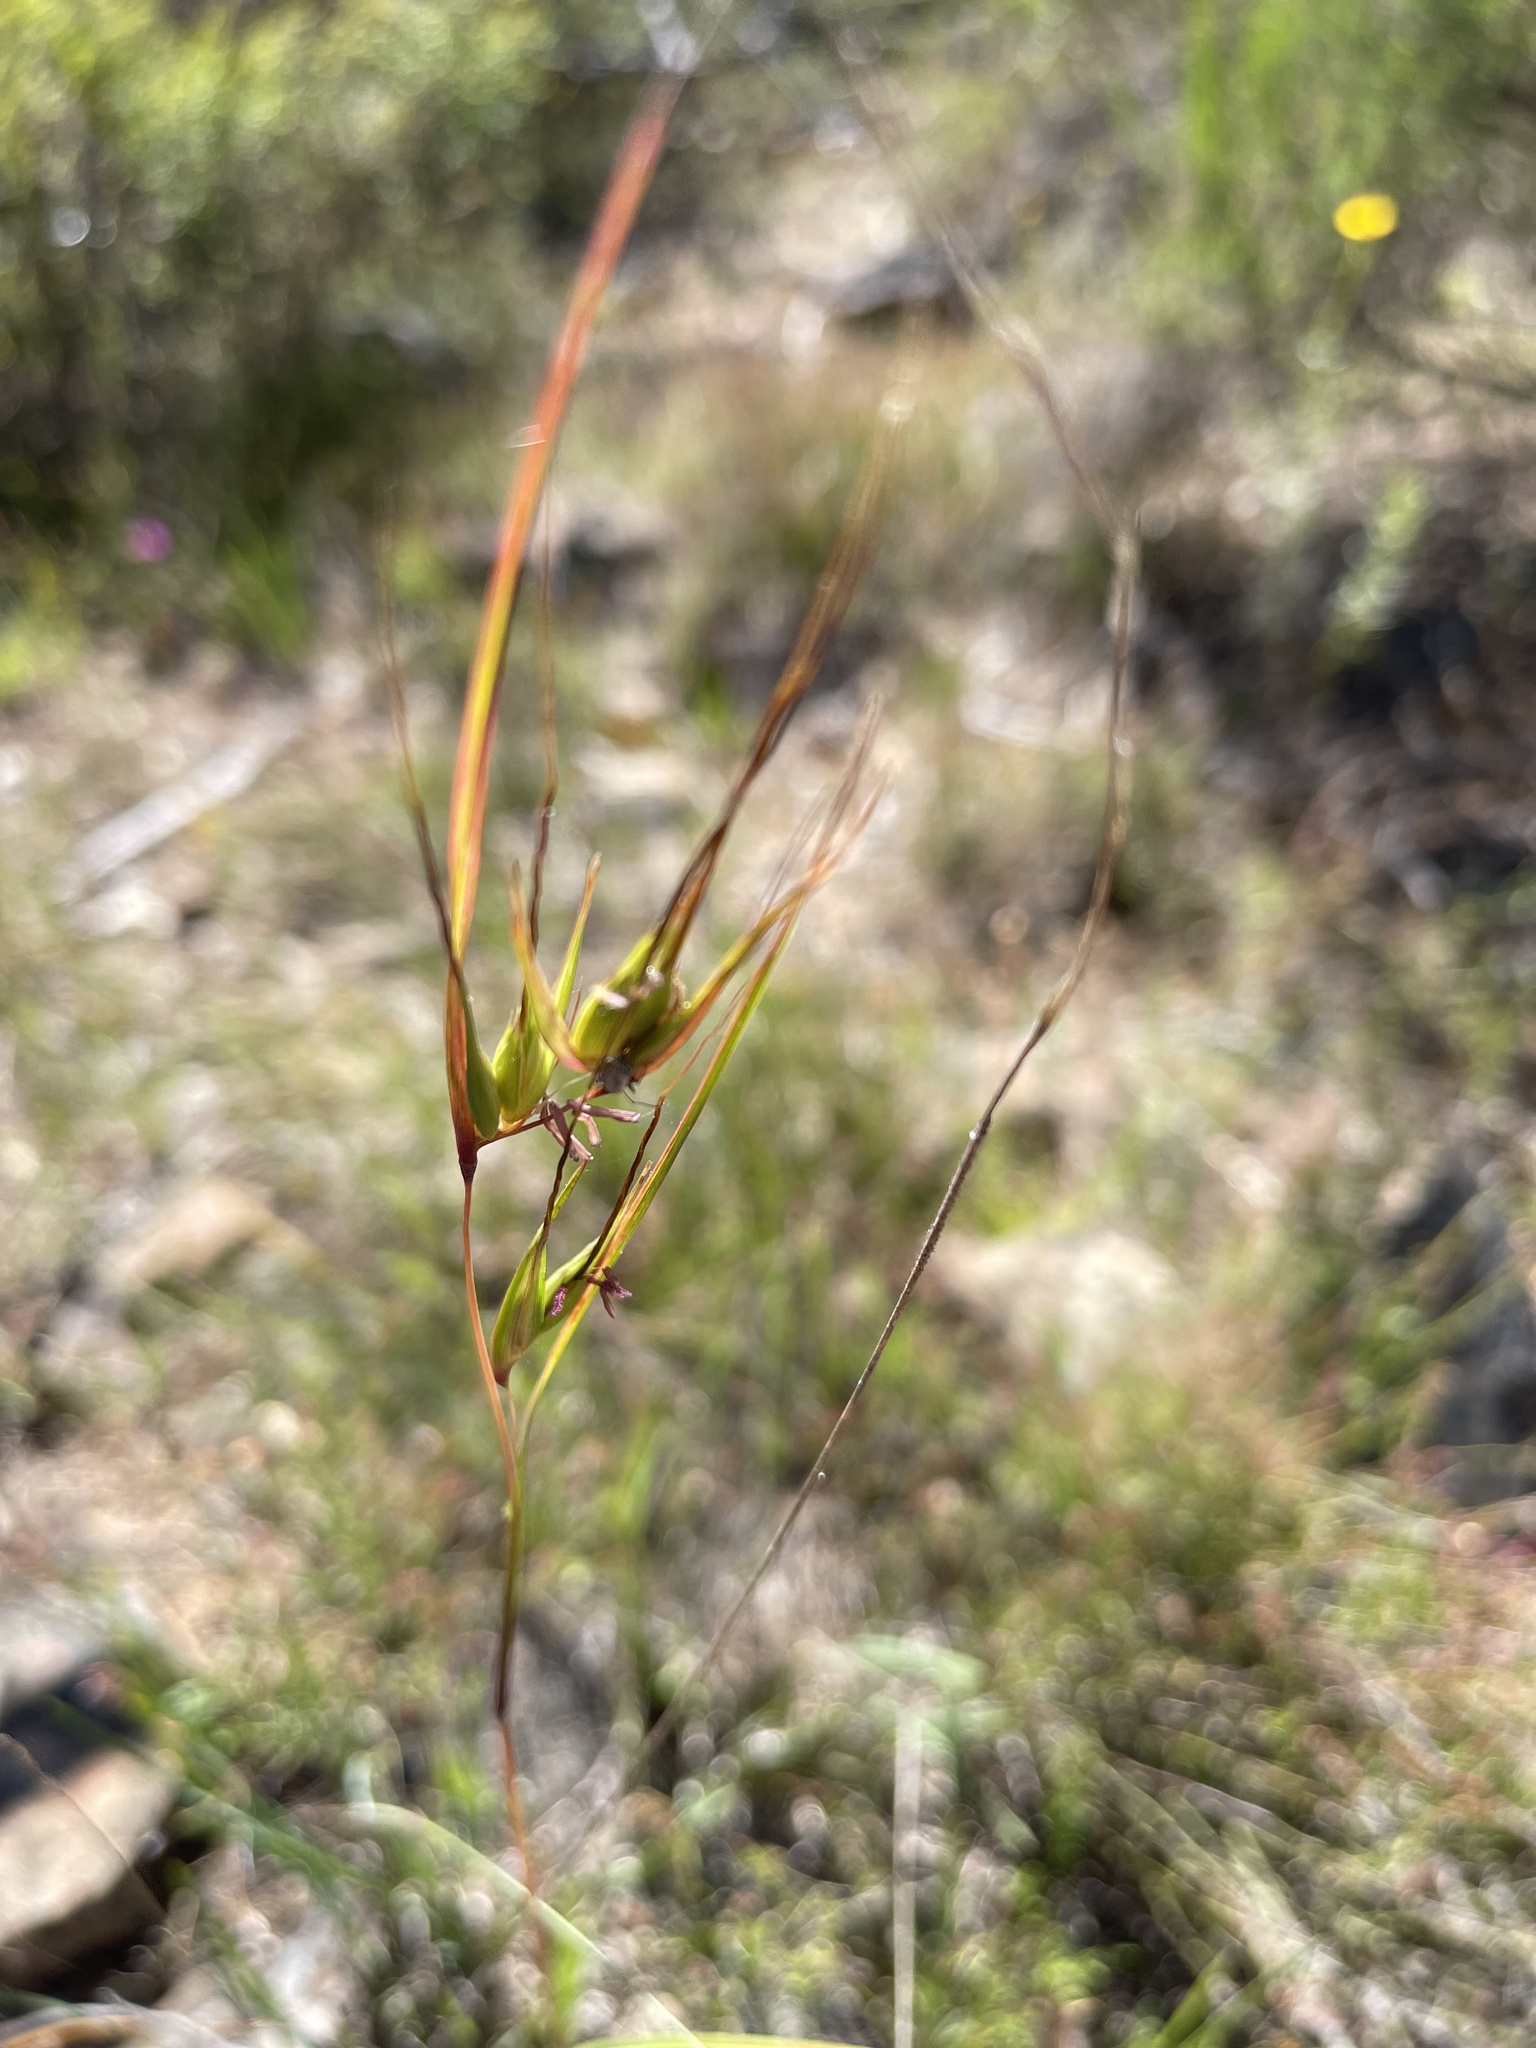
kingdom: Plantae
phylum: Tracheophyta
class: Liliopsida
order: Poales
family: Poaceae
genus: Themeda
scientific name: Themeda triandra
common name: Kangaroo grass
